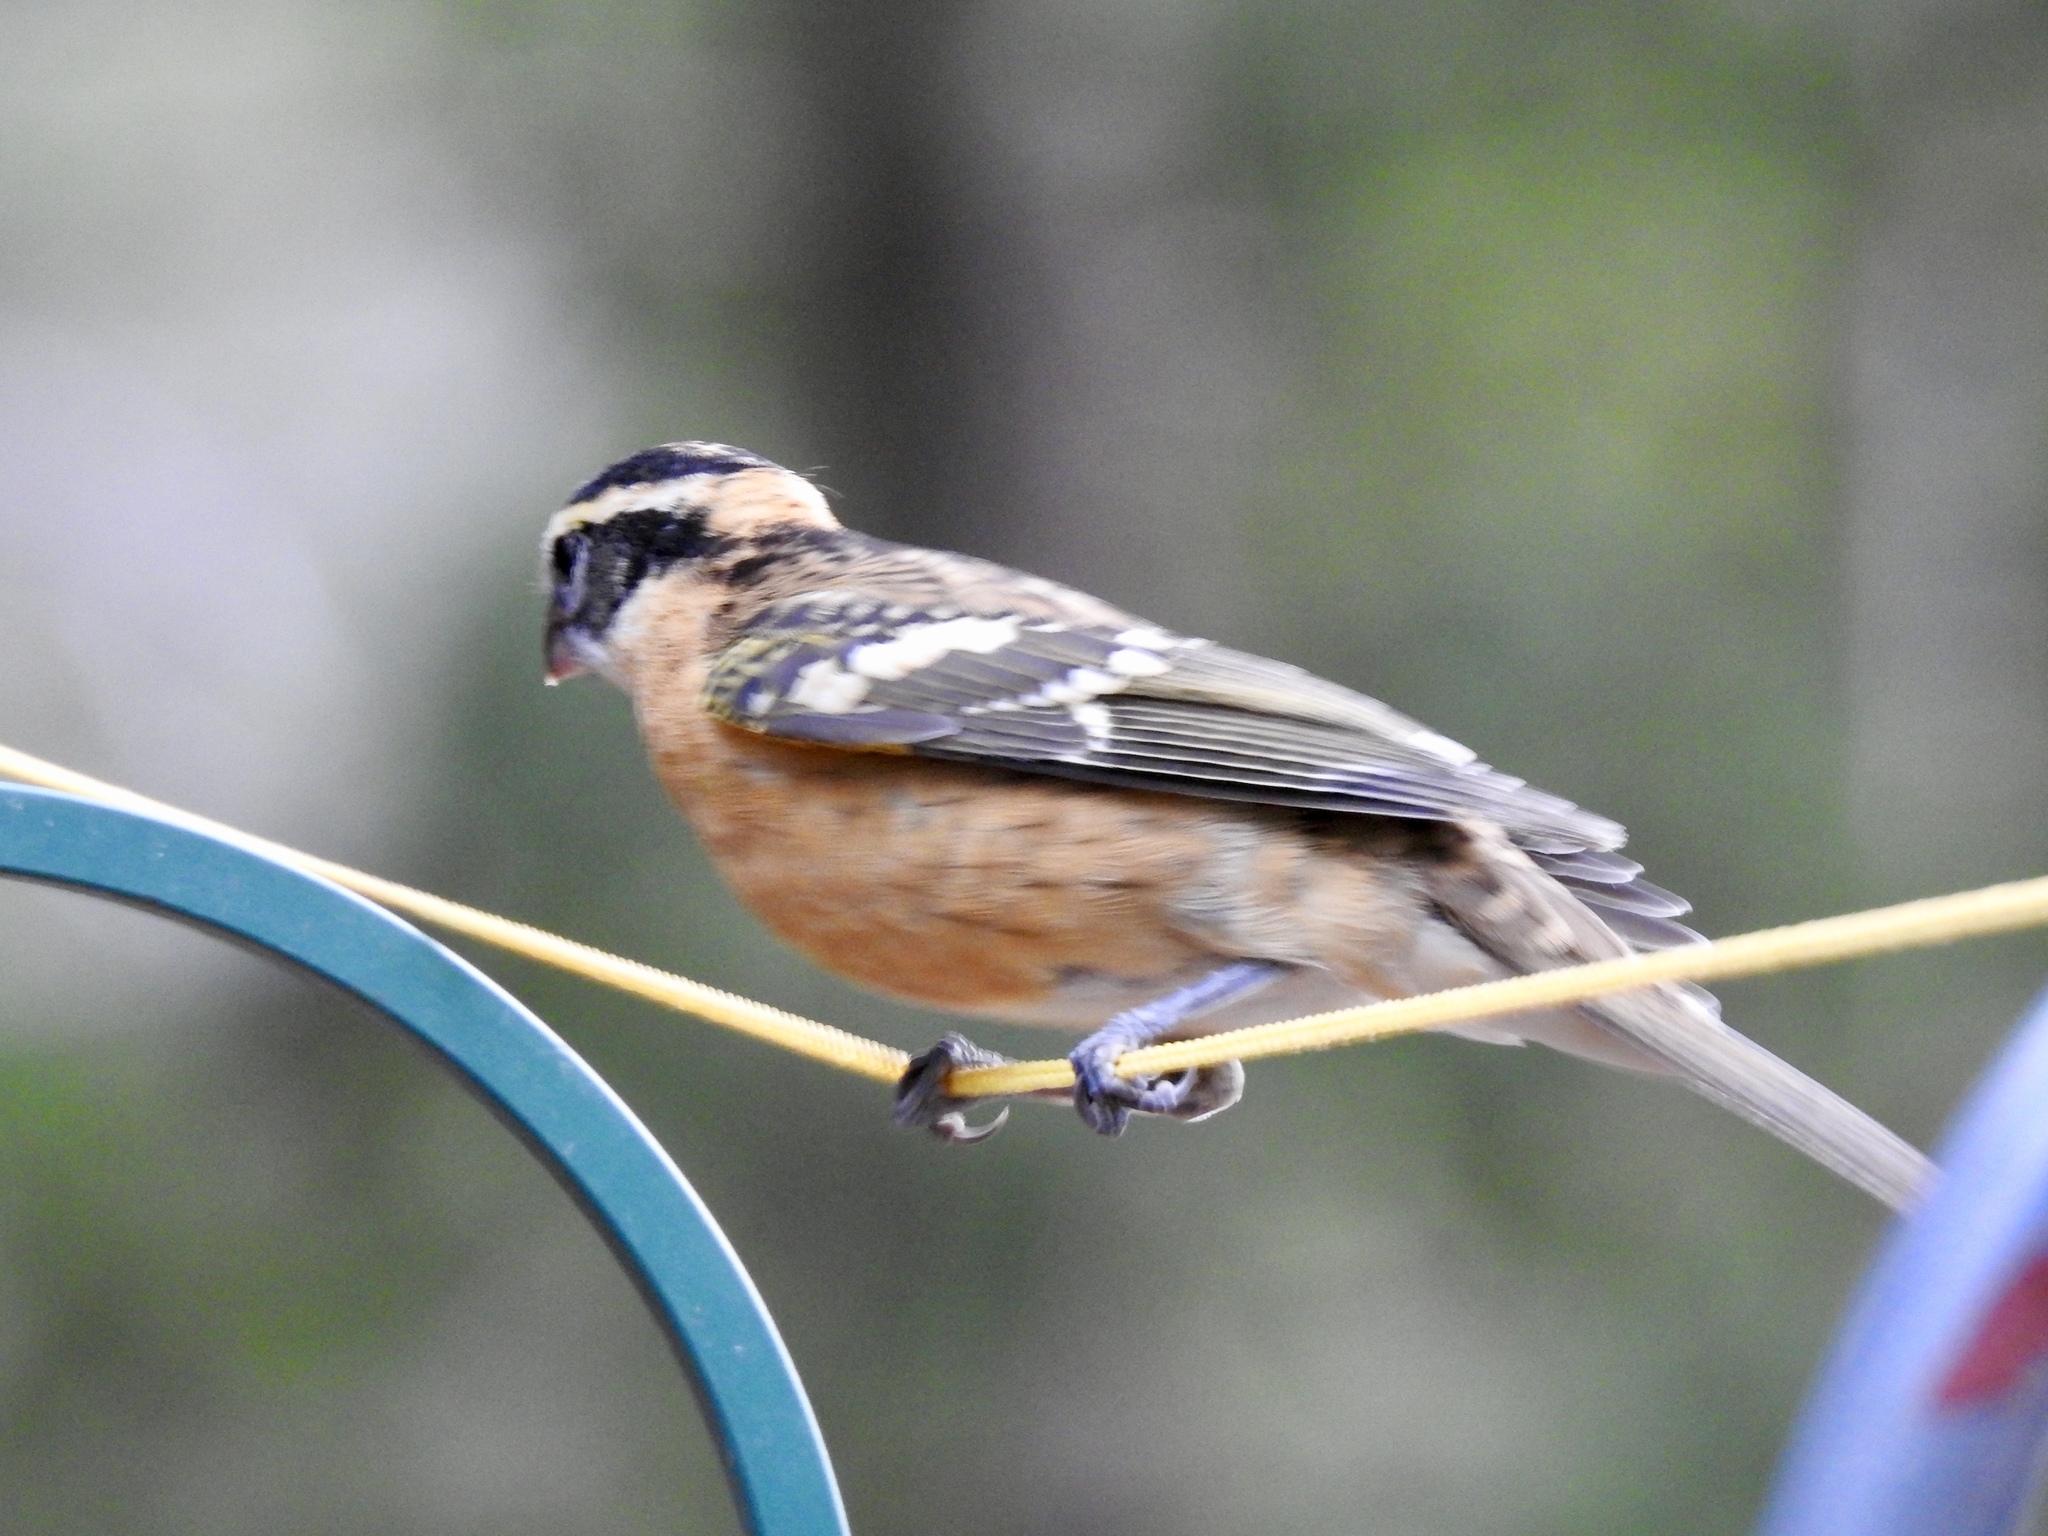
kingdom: Animalia
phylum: Chordata
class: Aves
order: Passeriformes
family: Cardinalidae
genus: Pheucticus
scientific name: Pheucticus melanocephalus
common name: Black-headed grosbeak
